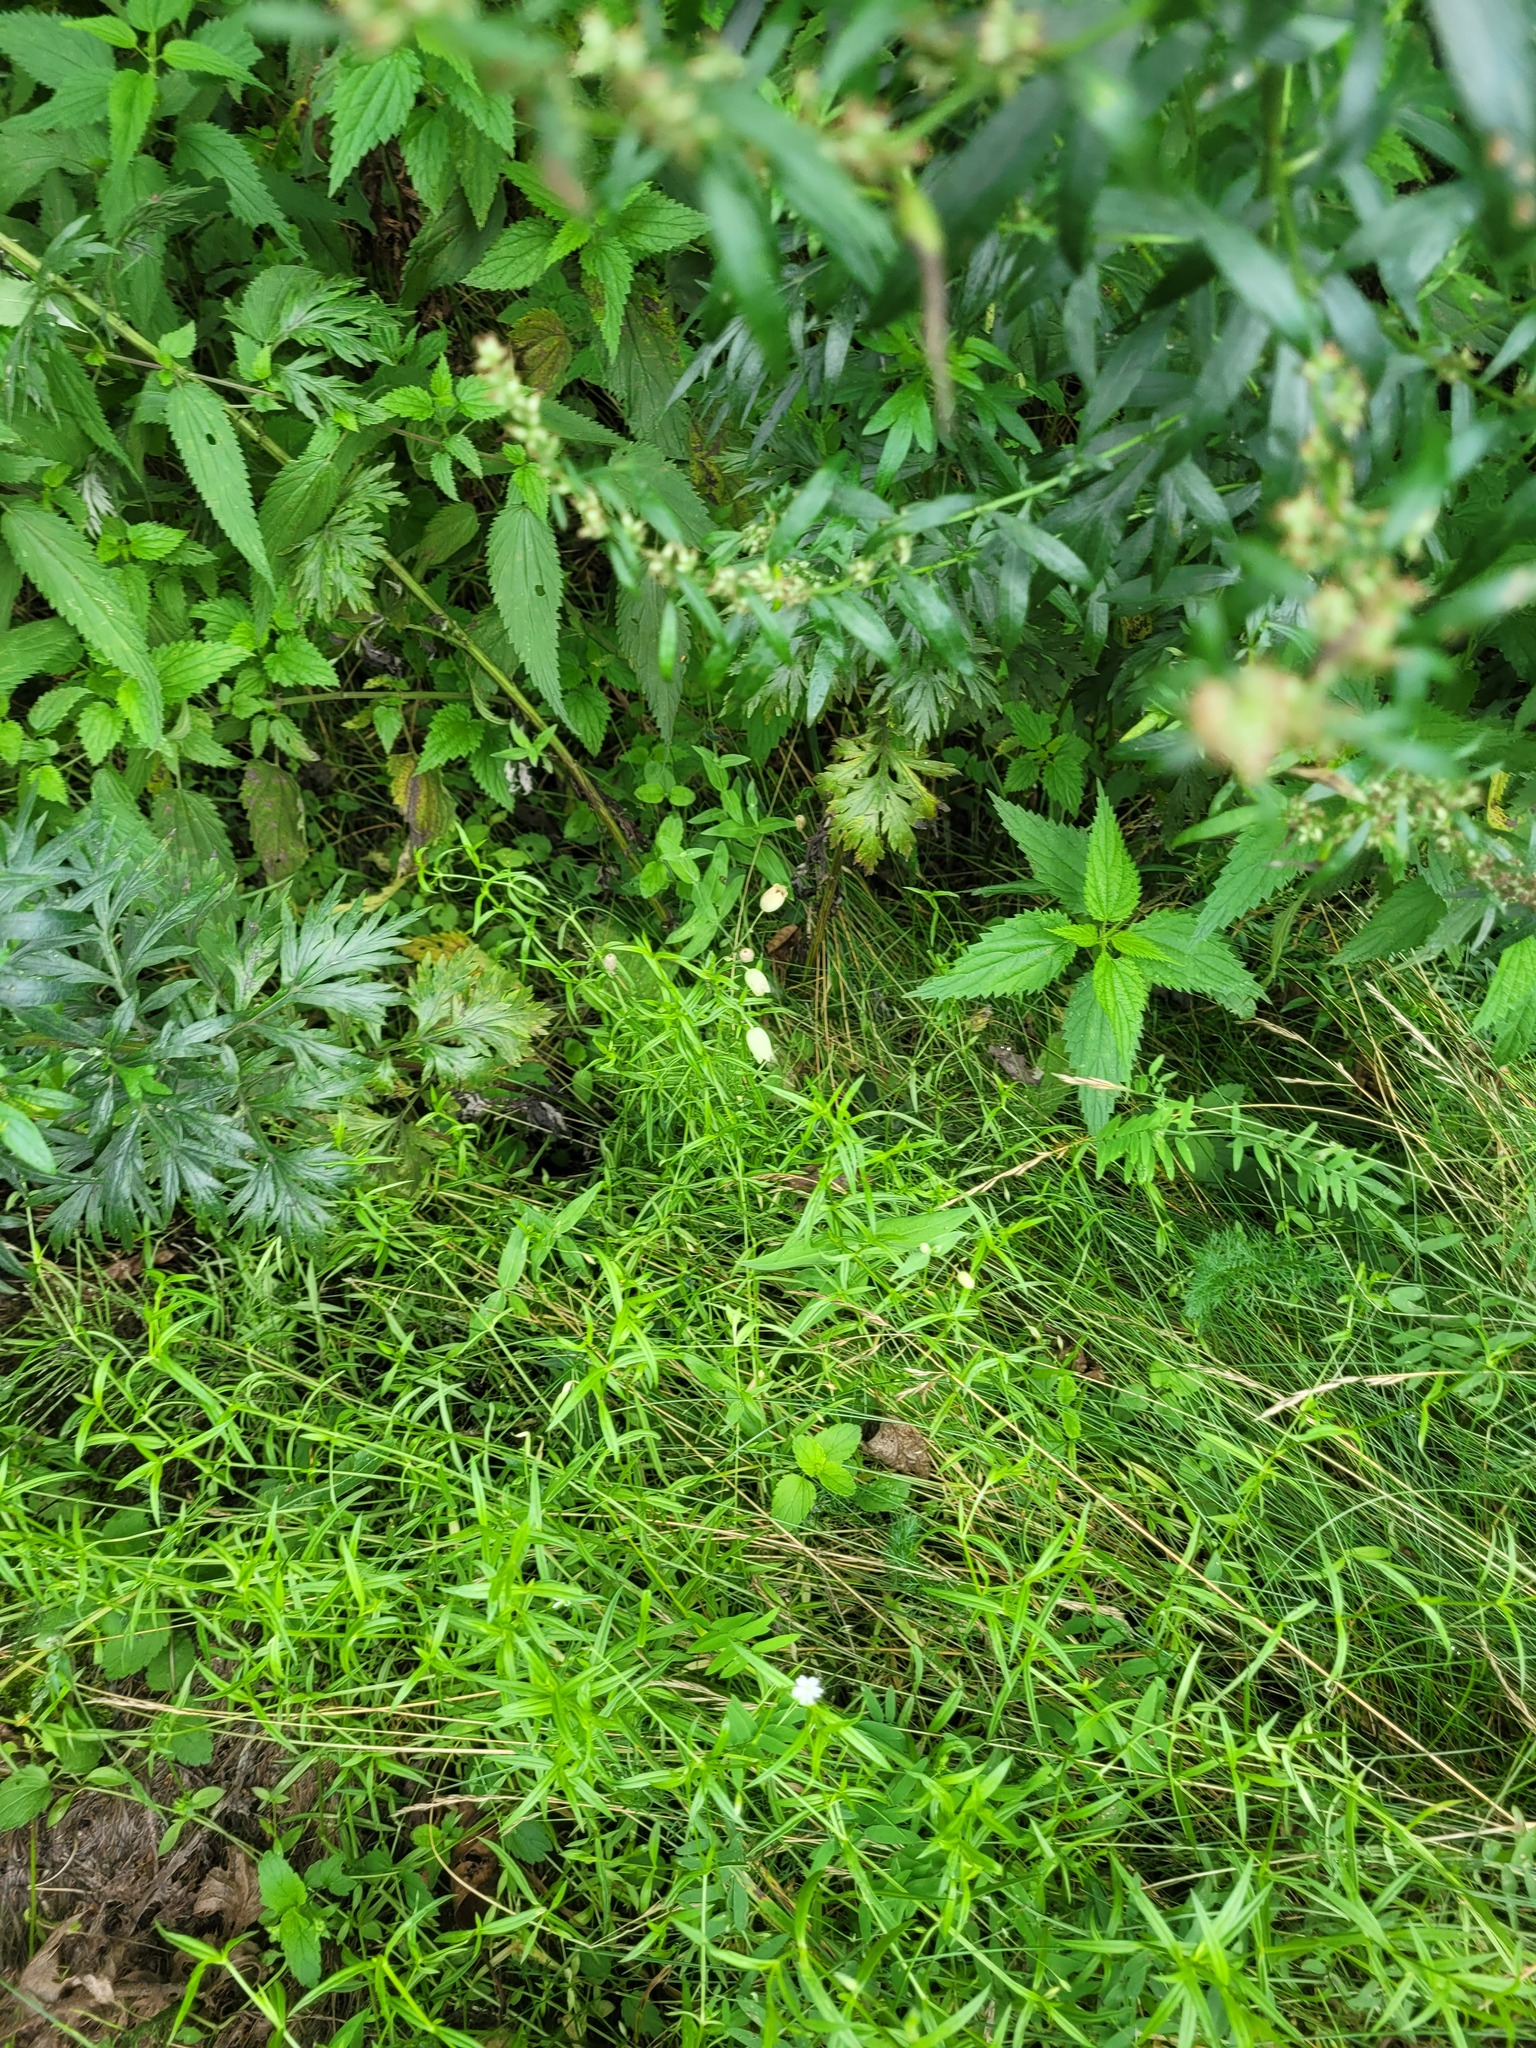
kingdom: Plantae
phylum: Tracheophyta
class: Magnoliopsida
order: Caryophyllales
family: Caryophyllaceae
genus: Silene
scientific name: Silene vulgaris
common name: Bladder campion
